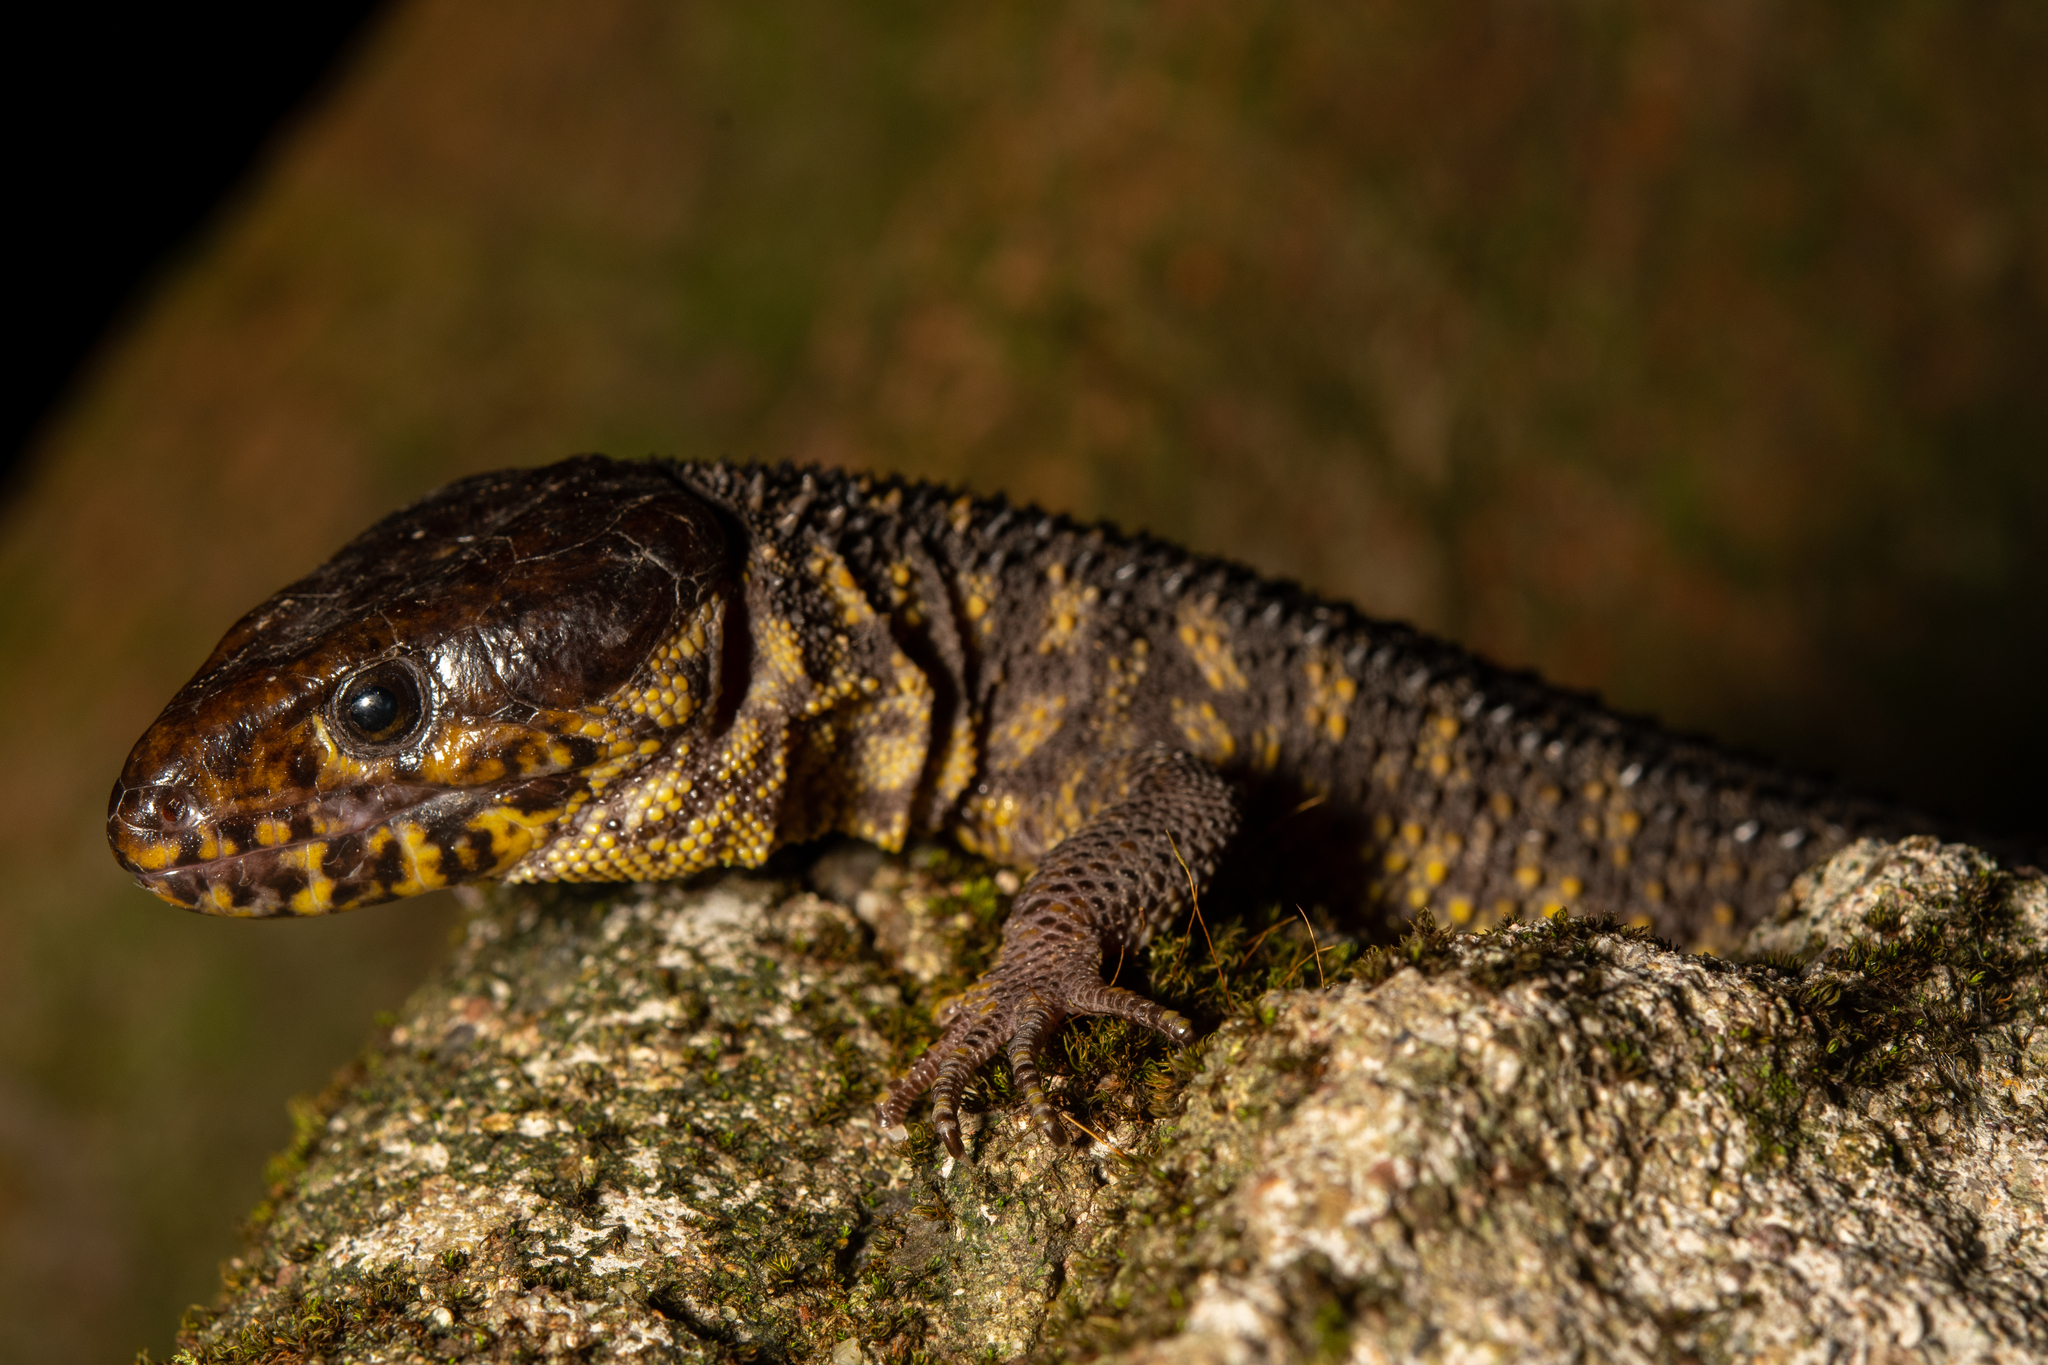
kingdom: Animalia
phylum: Chordata
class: Squamata
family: Xantusiidae
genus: Lepidophyma
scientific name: Lepidophyma flavimaculatum
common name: Yellow-spotted night lizard
